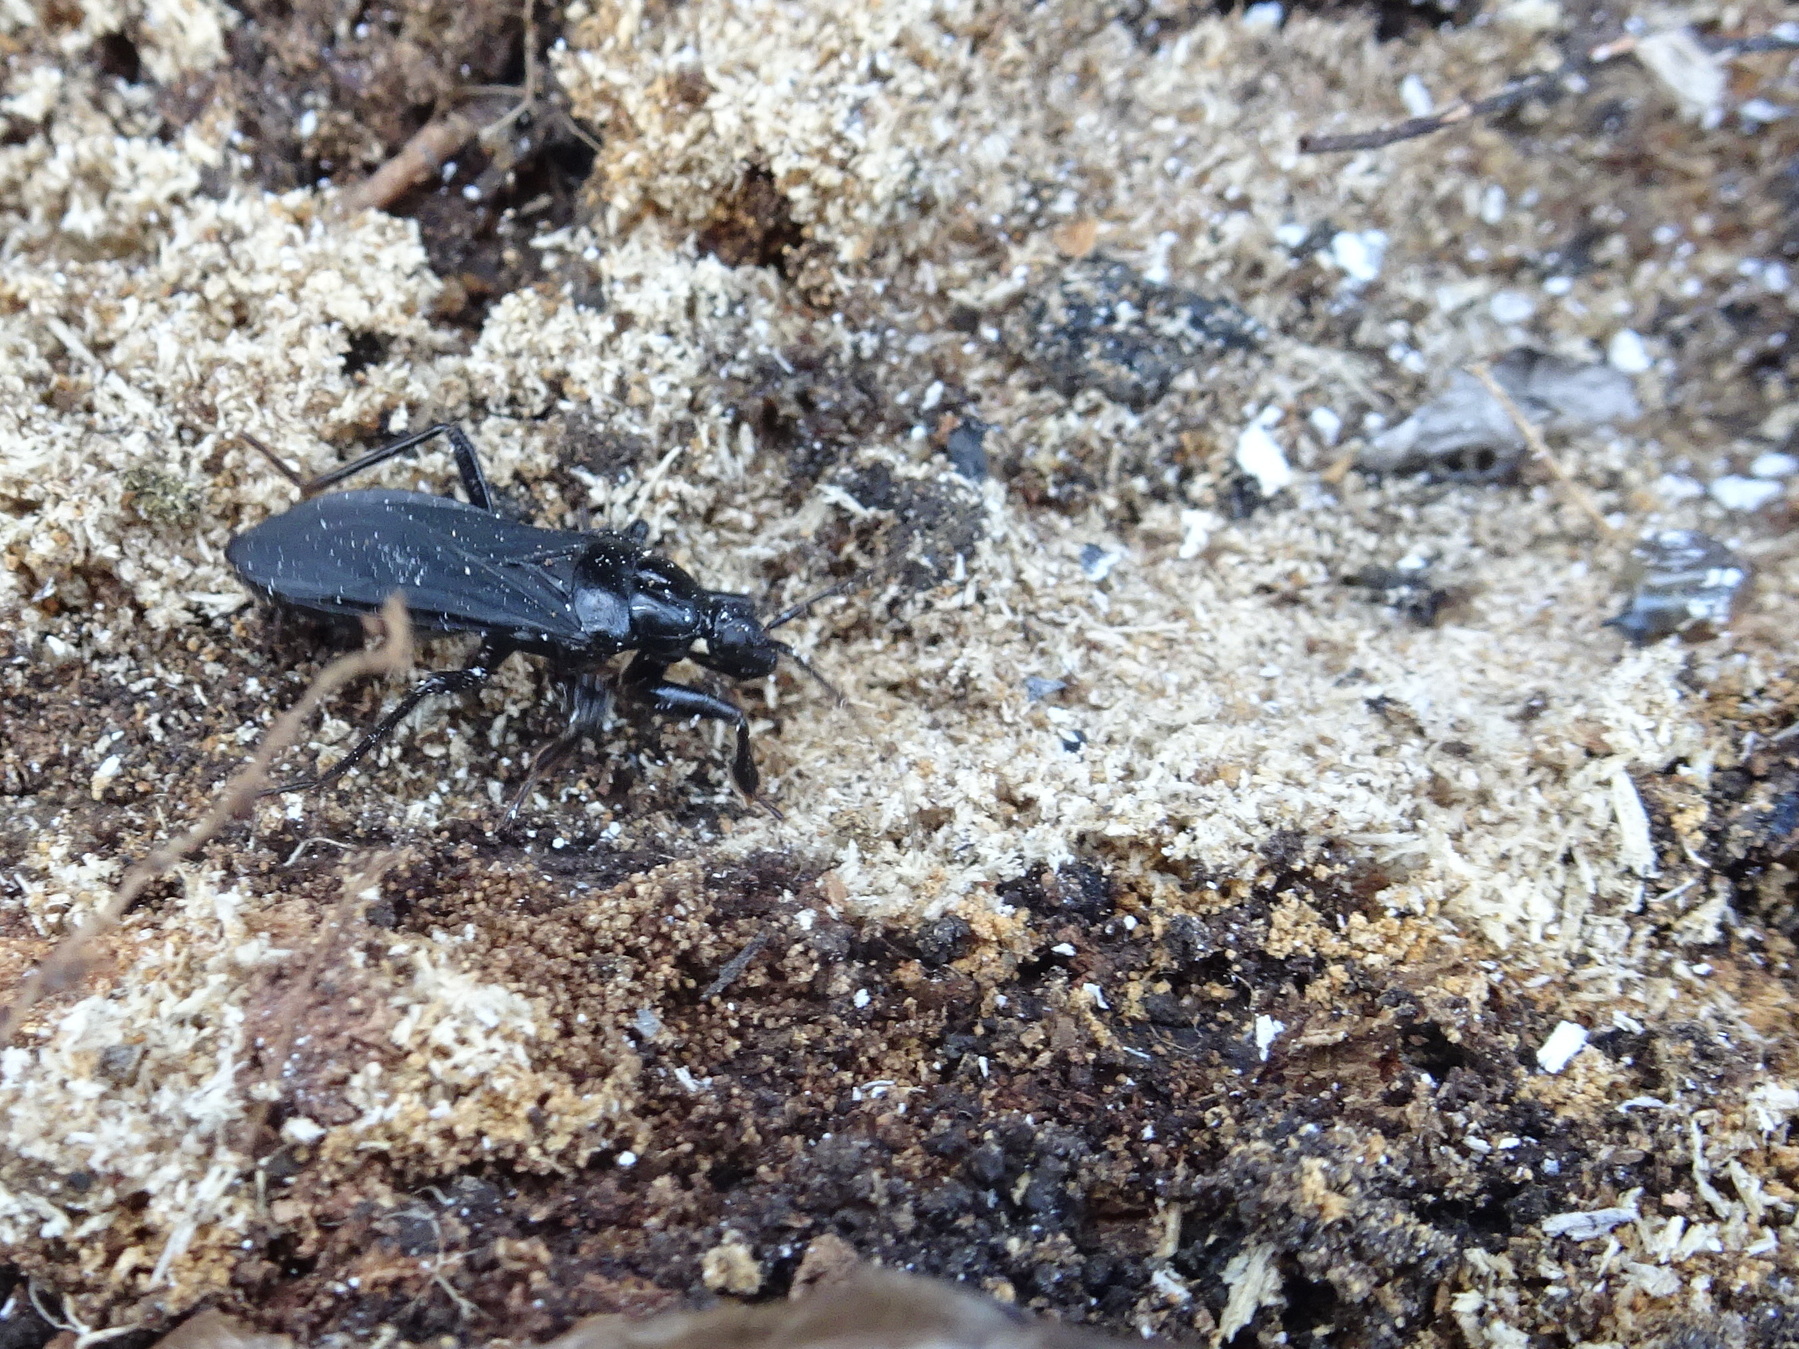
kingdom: Animalia
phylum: Arthropoda
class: Insecta
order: Hemiptera
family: Reduviidae
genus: Melanolestes
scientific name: Melanolestes picipes
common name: Assassin bug
